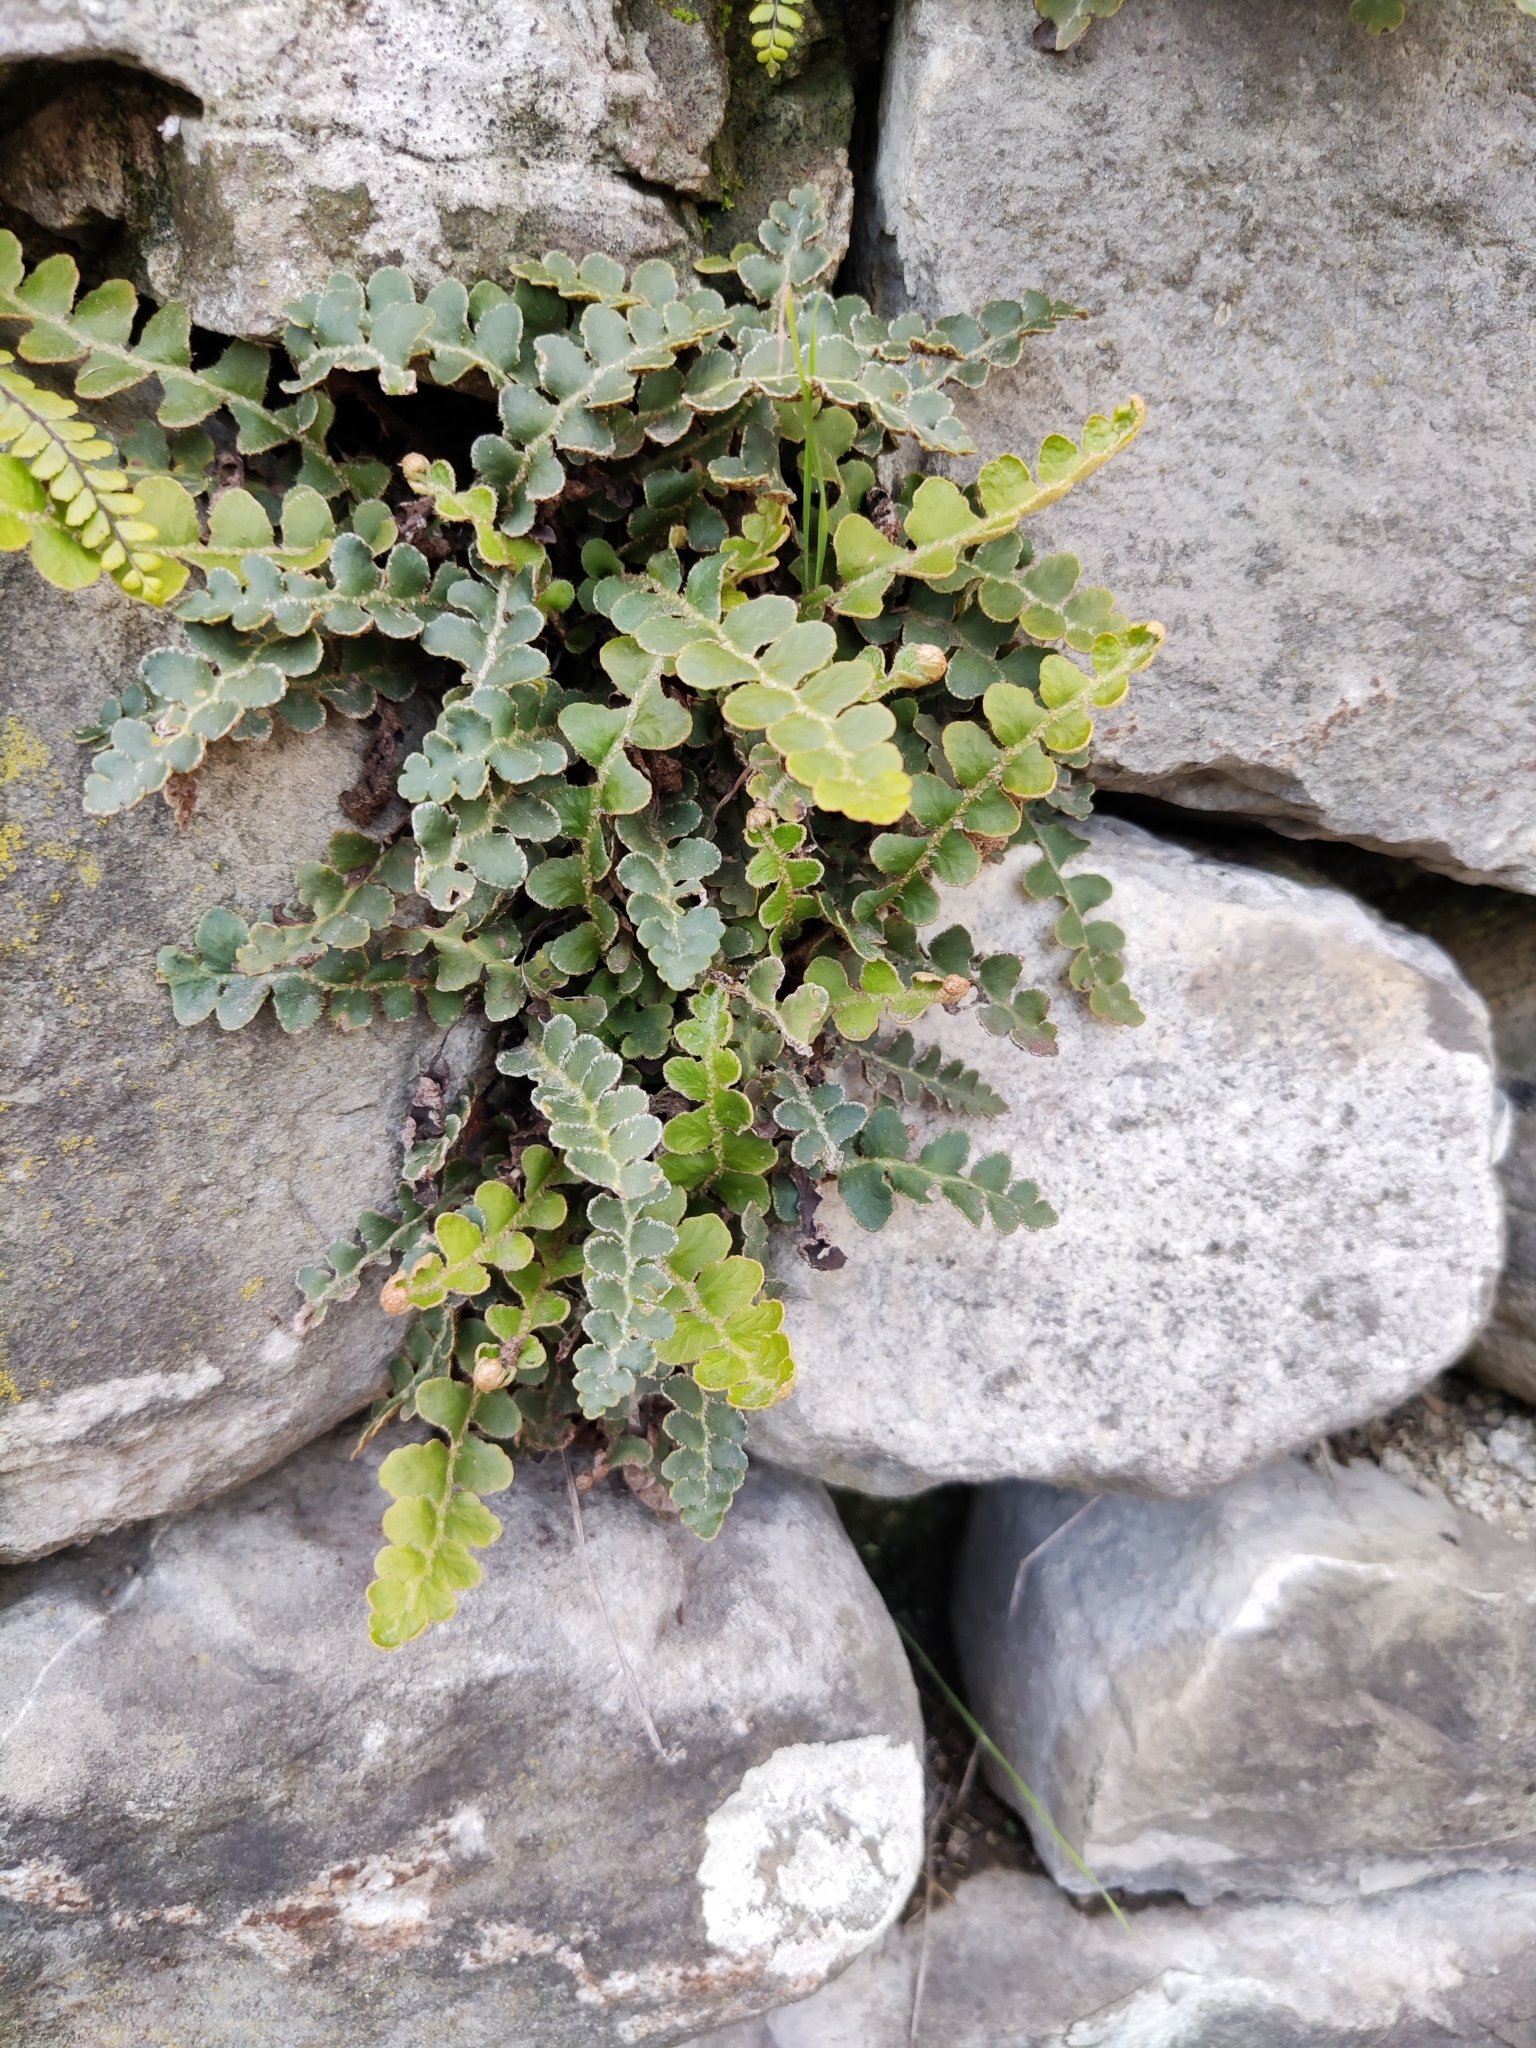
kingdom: Plantae
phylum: Tracheophyta
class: Polypodiopsida
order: Polypodiales
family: Aspleniaceae
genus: Asplenium
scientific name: Asplenium ceterach
